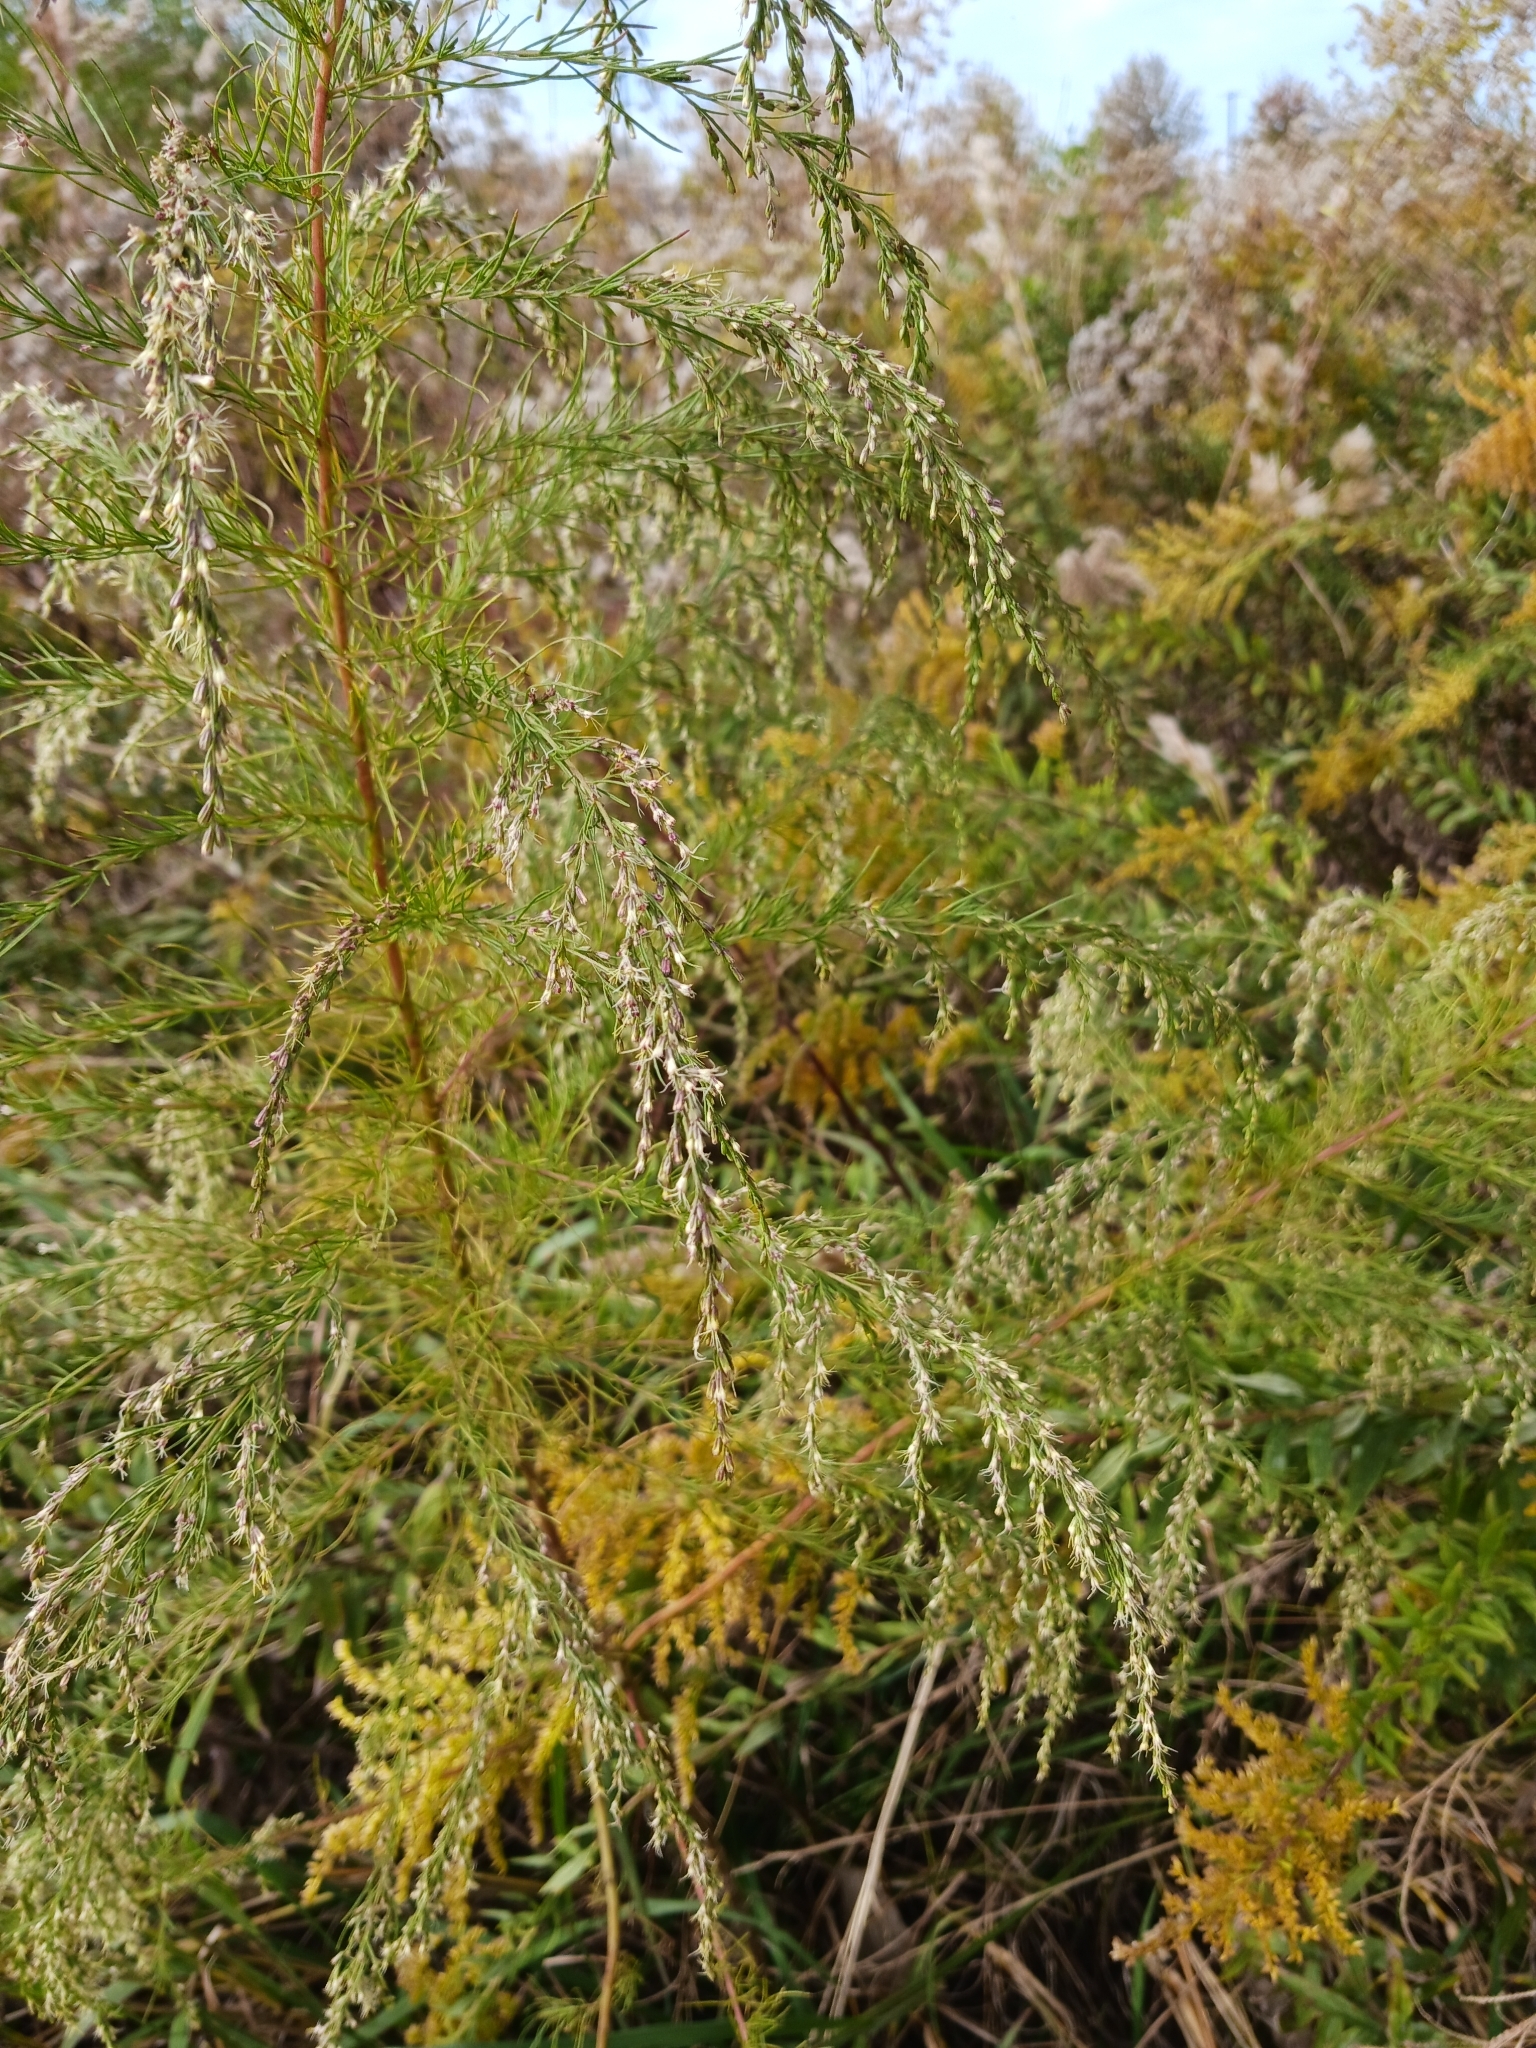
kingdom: Plantae
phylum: Tracheophyta
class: Magnoliopsida
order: Asterales
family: Asteraceae
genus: Eupatorium
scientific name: Eupatorium capillifolium
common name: Dog-fennel
